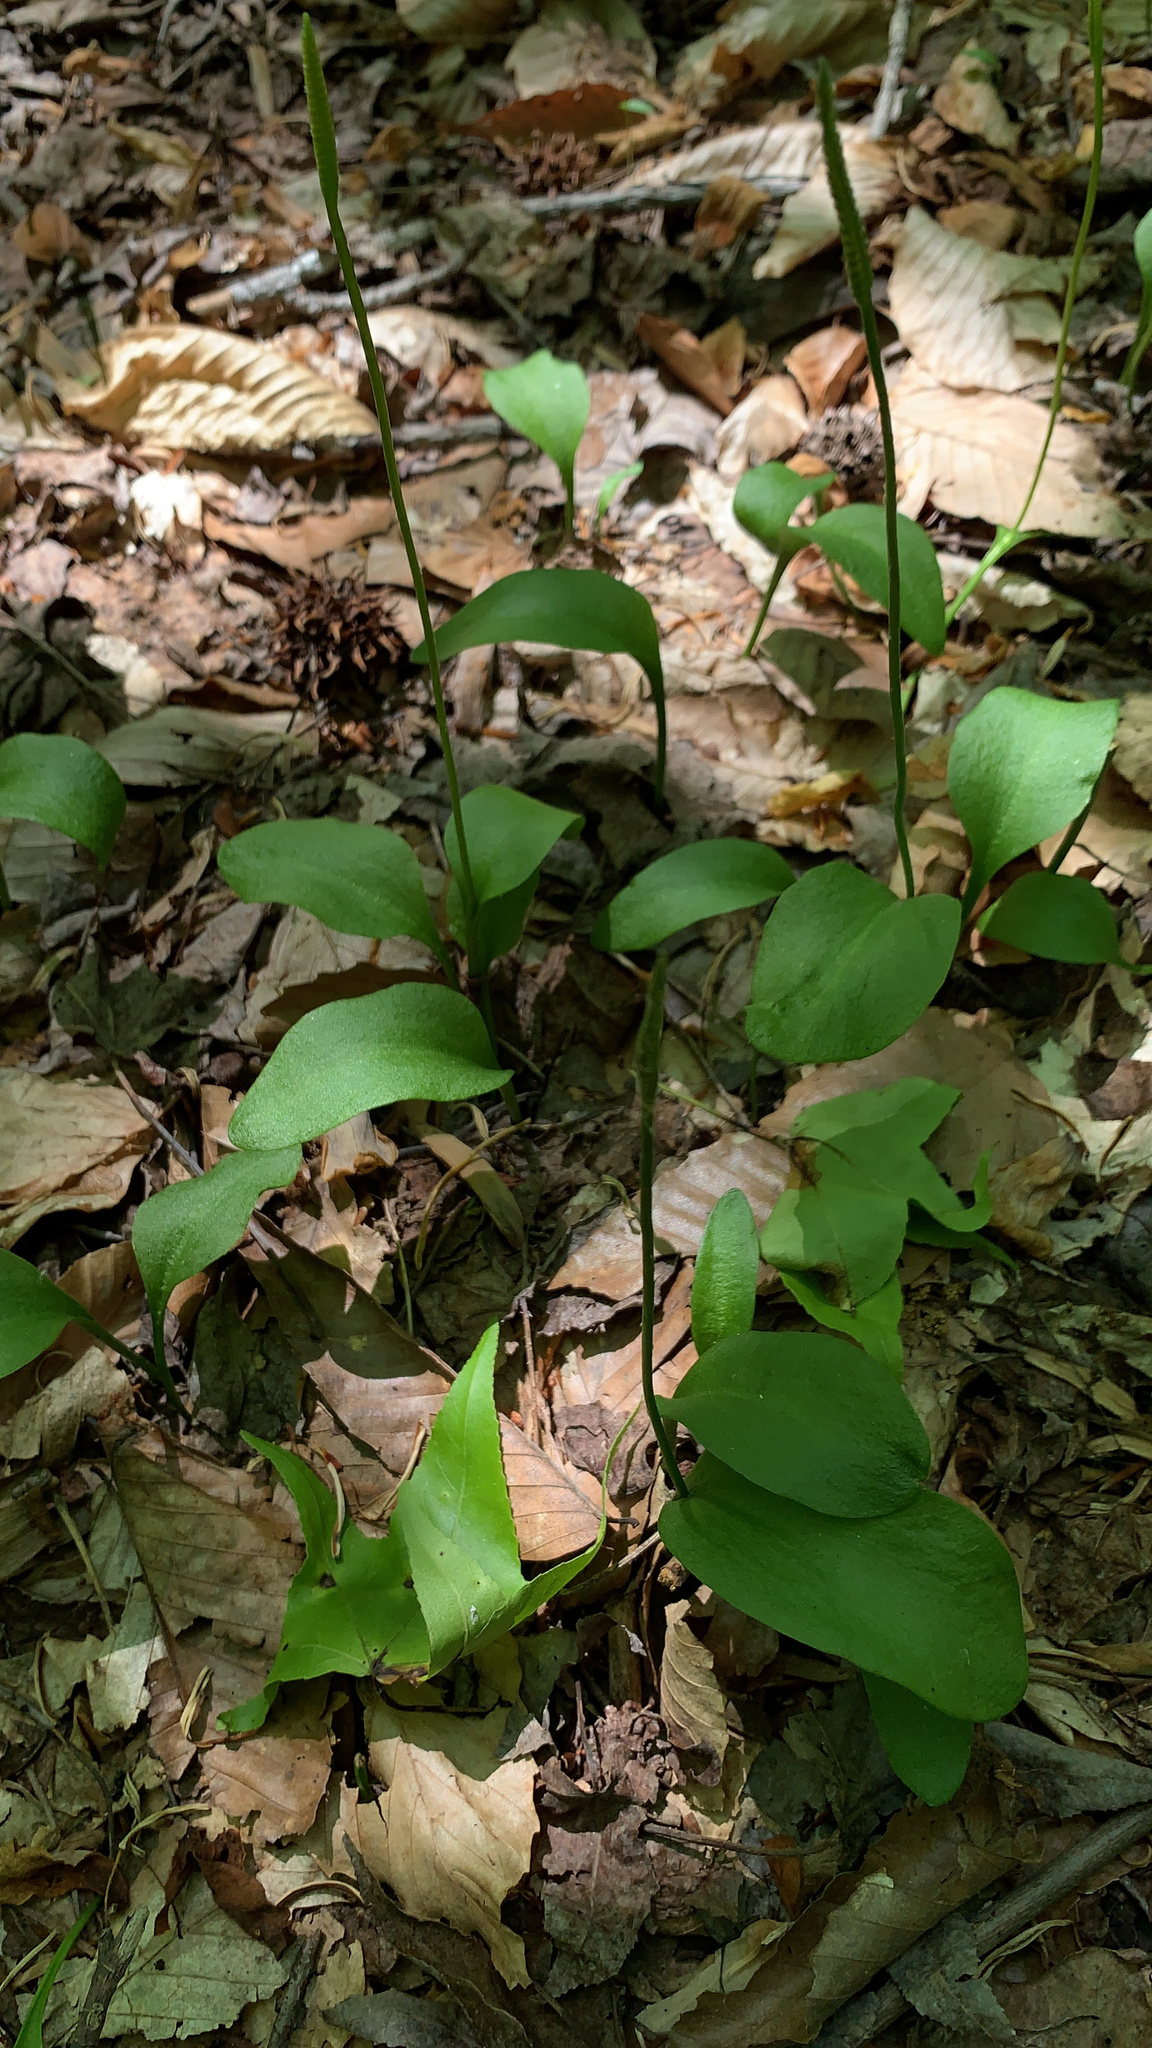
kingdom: Plantae
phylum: Tracheophyta
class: Polypodiopsida
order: Ophioglossales
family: Ophioglossaceae
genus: Ophioglossum
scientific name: Ophioglossum vulgatum
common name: Adder's-tongue
